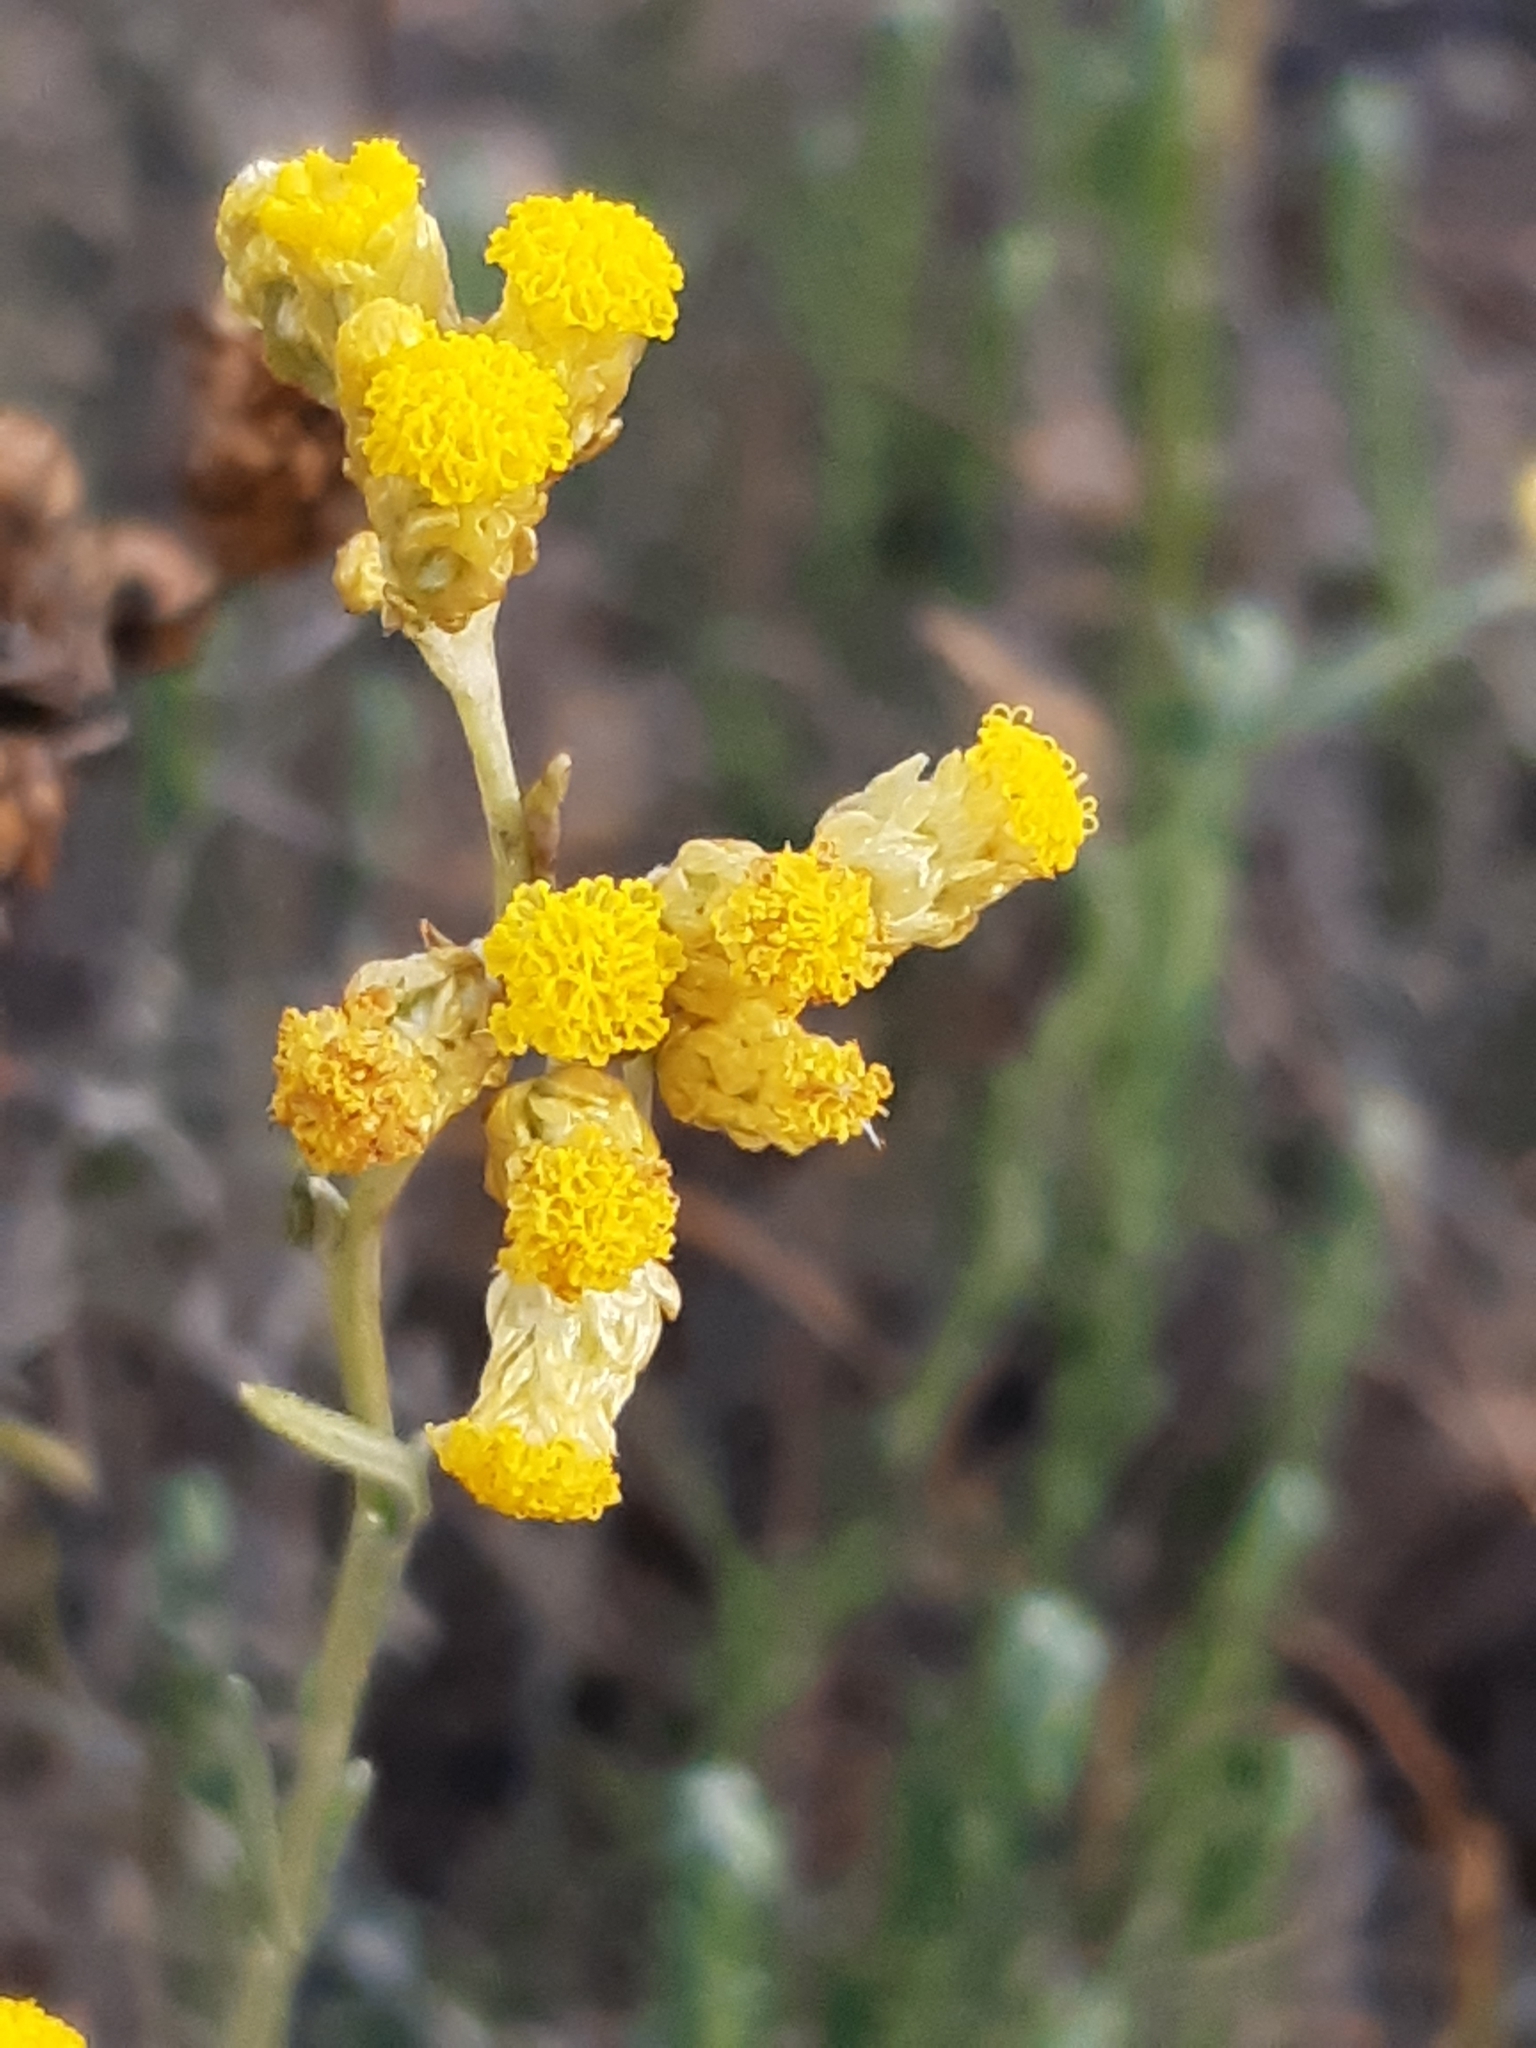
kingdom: Plantae
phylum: Tracheophyta
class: Magnoliopsida
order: Asterales
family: Asteraceae
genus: Helichrysum
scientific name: Helichrysum stoechas
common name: Goldilocks
